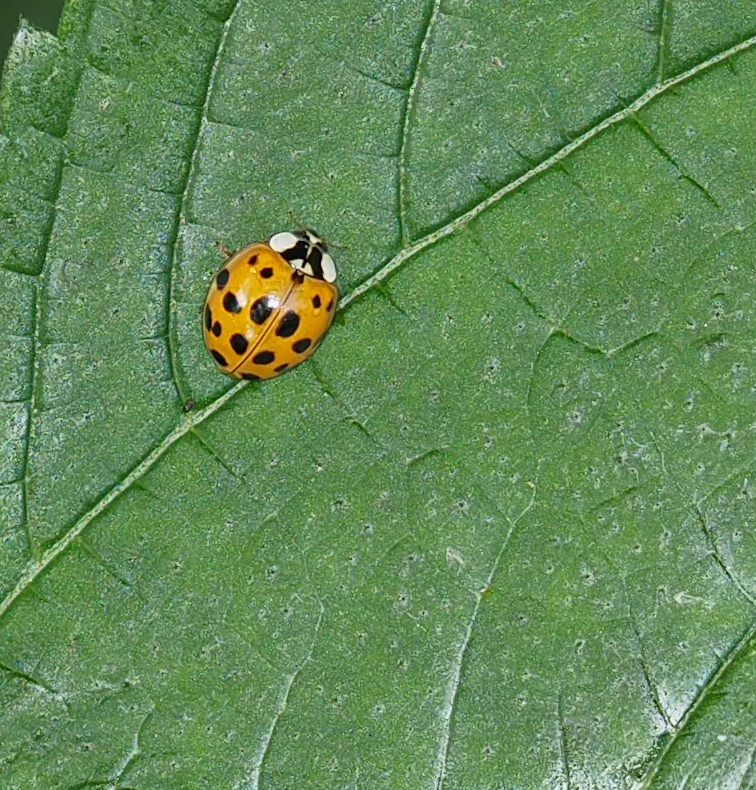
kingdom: Animalia
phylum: Arthropoda
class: Insecta
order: Coleoptera
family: Coccinellidae
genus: Harmonia
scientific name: Harmonia axyridis
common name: Harlequin ladybird
